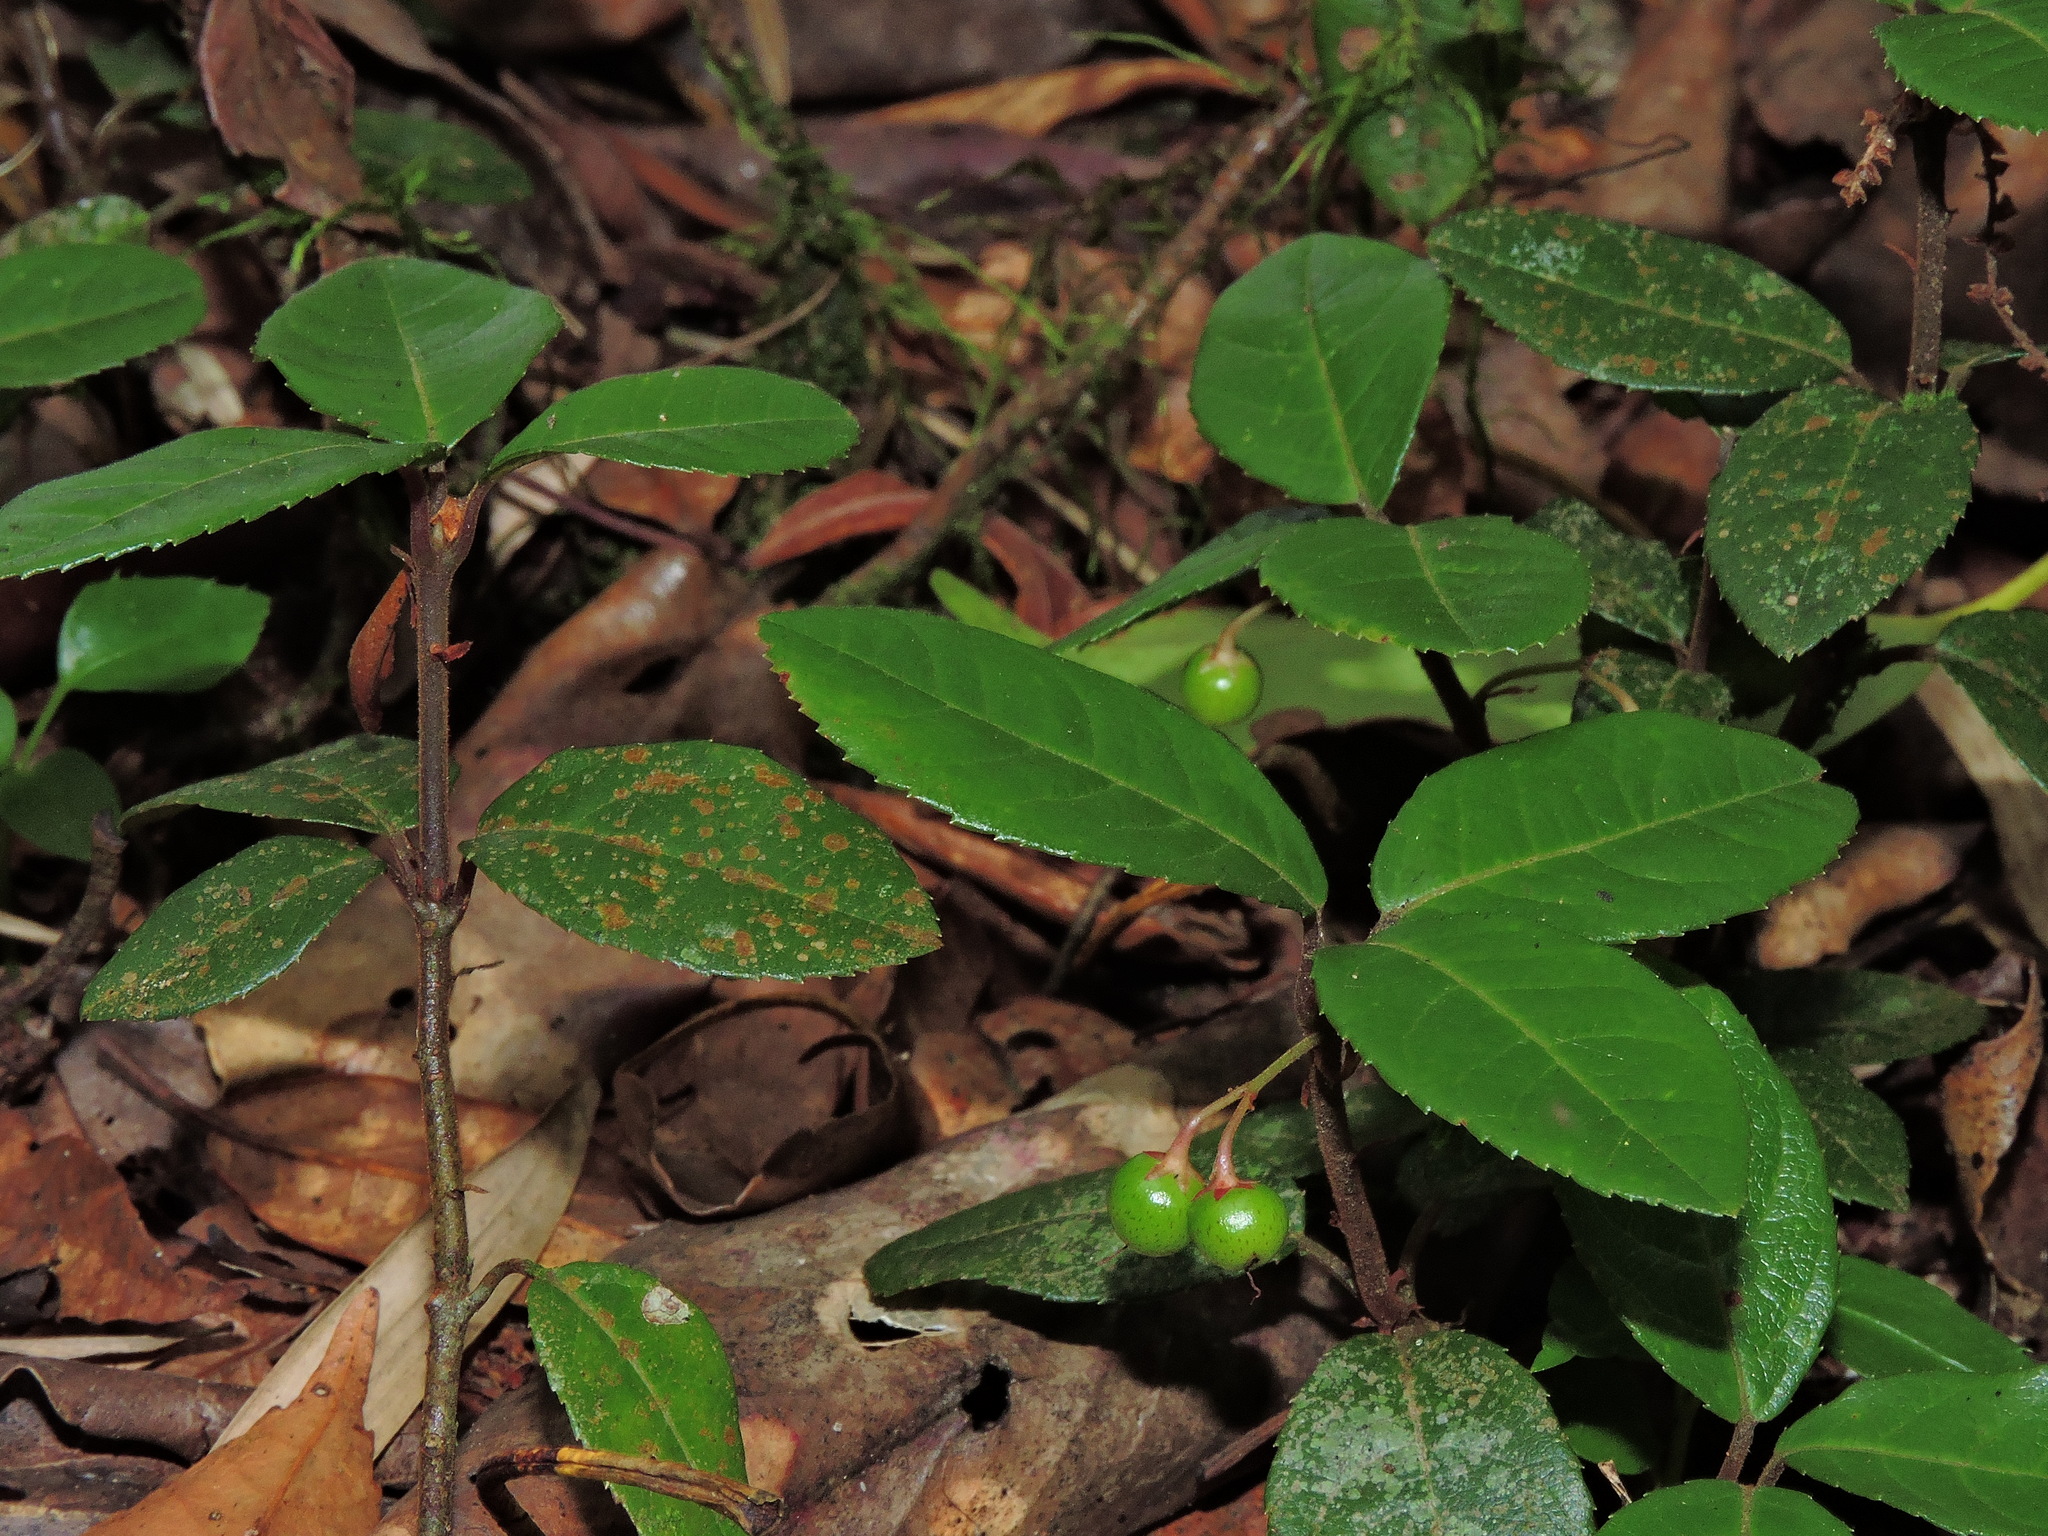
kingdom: Plantae
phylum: Tracheophyta
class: Magnoliopsida
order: Ericales
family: Primulaceae
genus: Ardisia
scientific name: Ardisia japonica
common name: Marlberry
